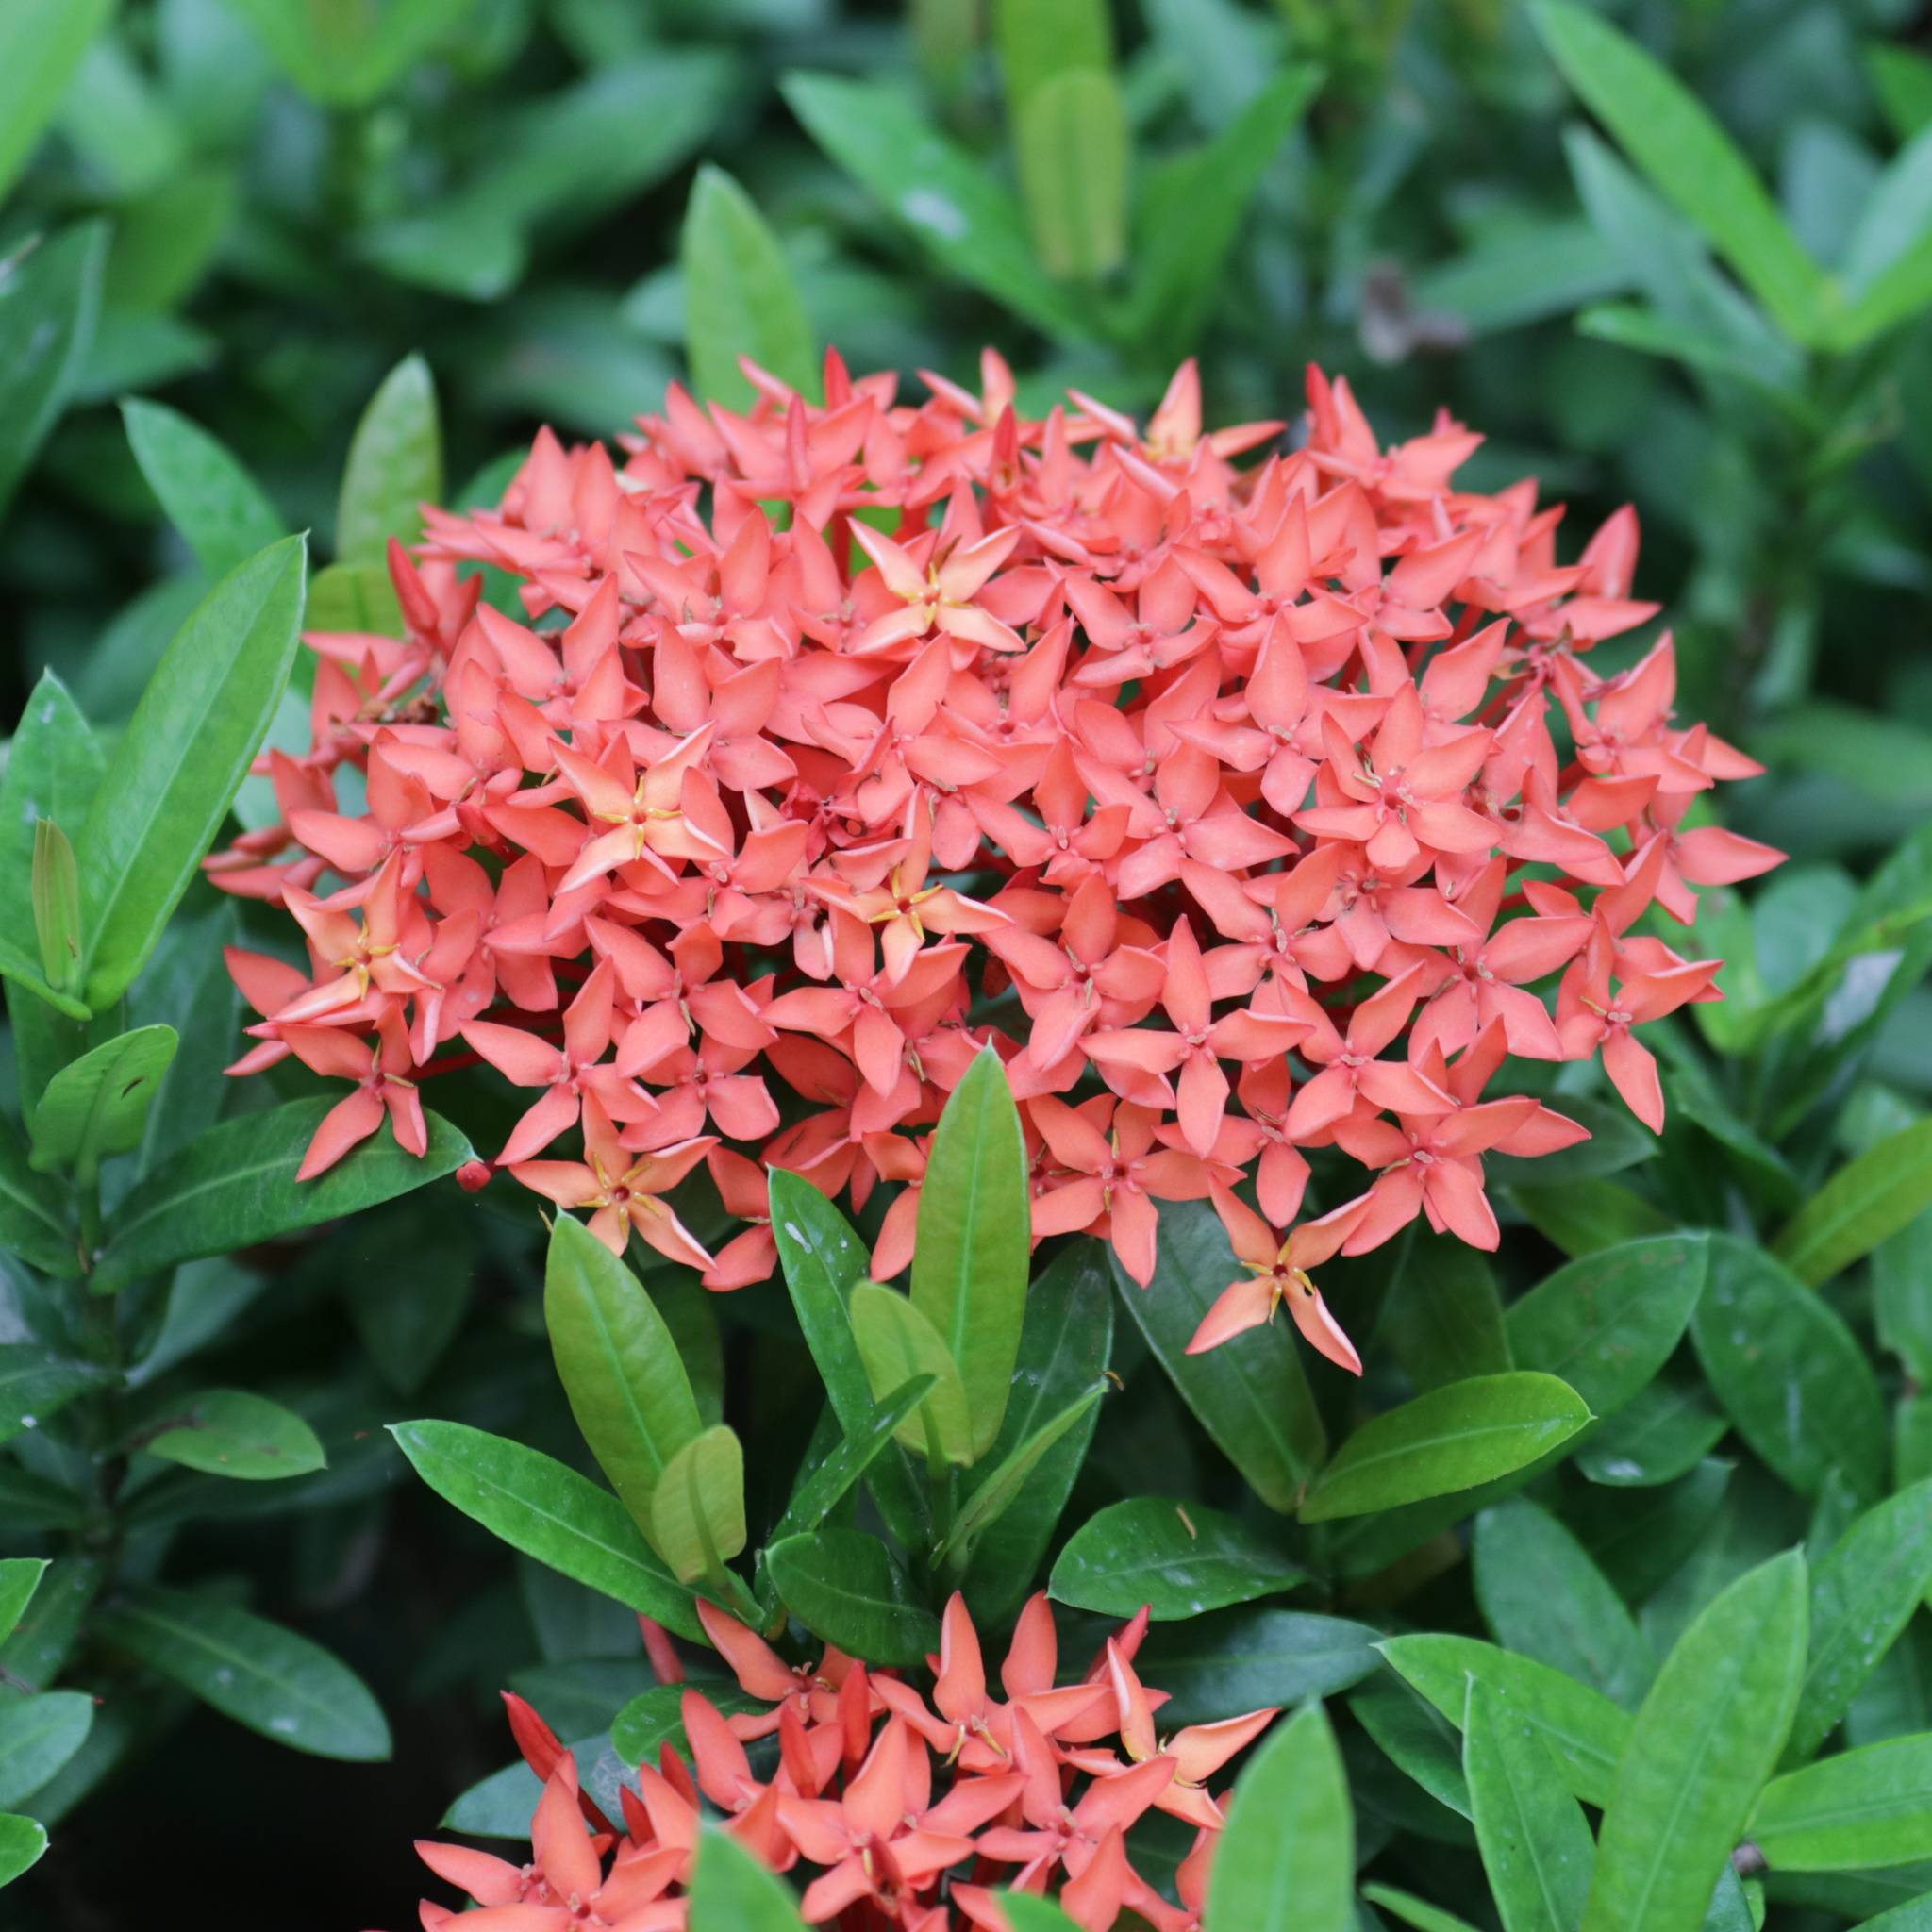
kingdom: Plantae
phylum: Tracheophyta
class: Magnoliopsida
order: Gentianales
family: Rubiaceae
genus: Ixora
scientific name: Ixora coccinea
